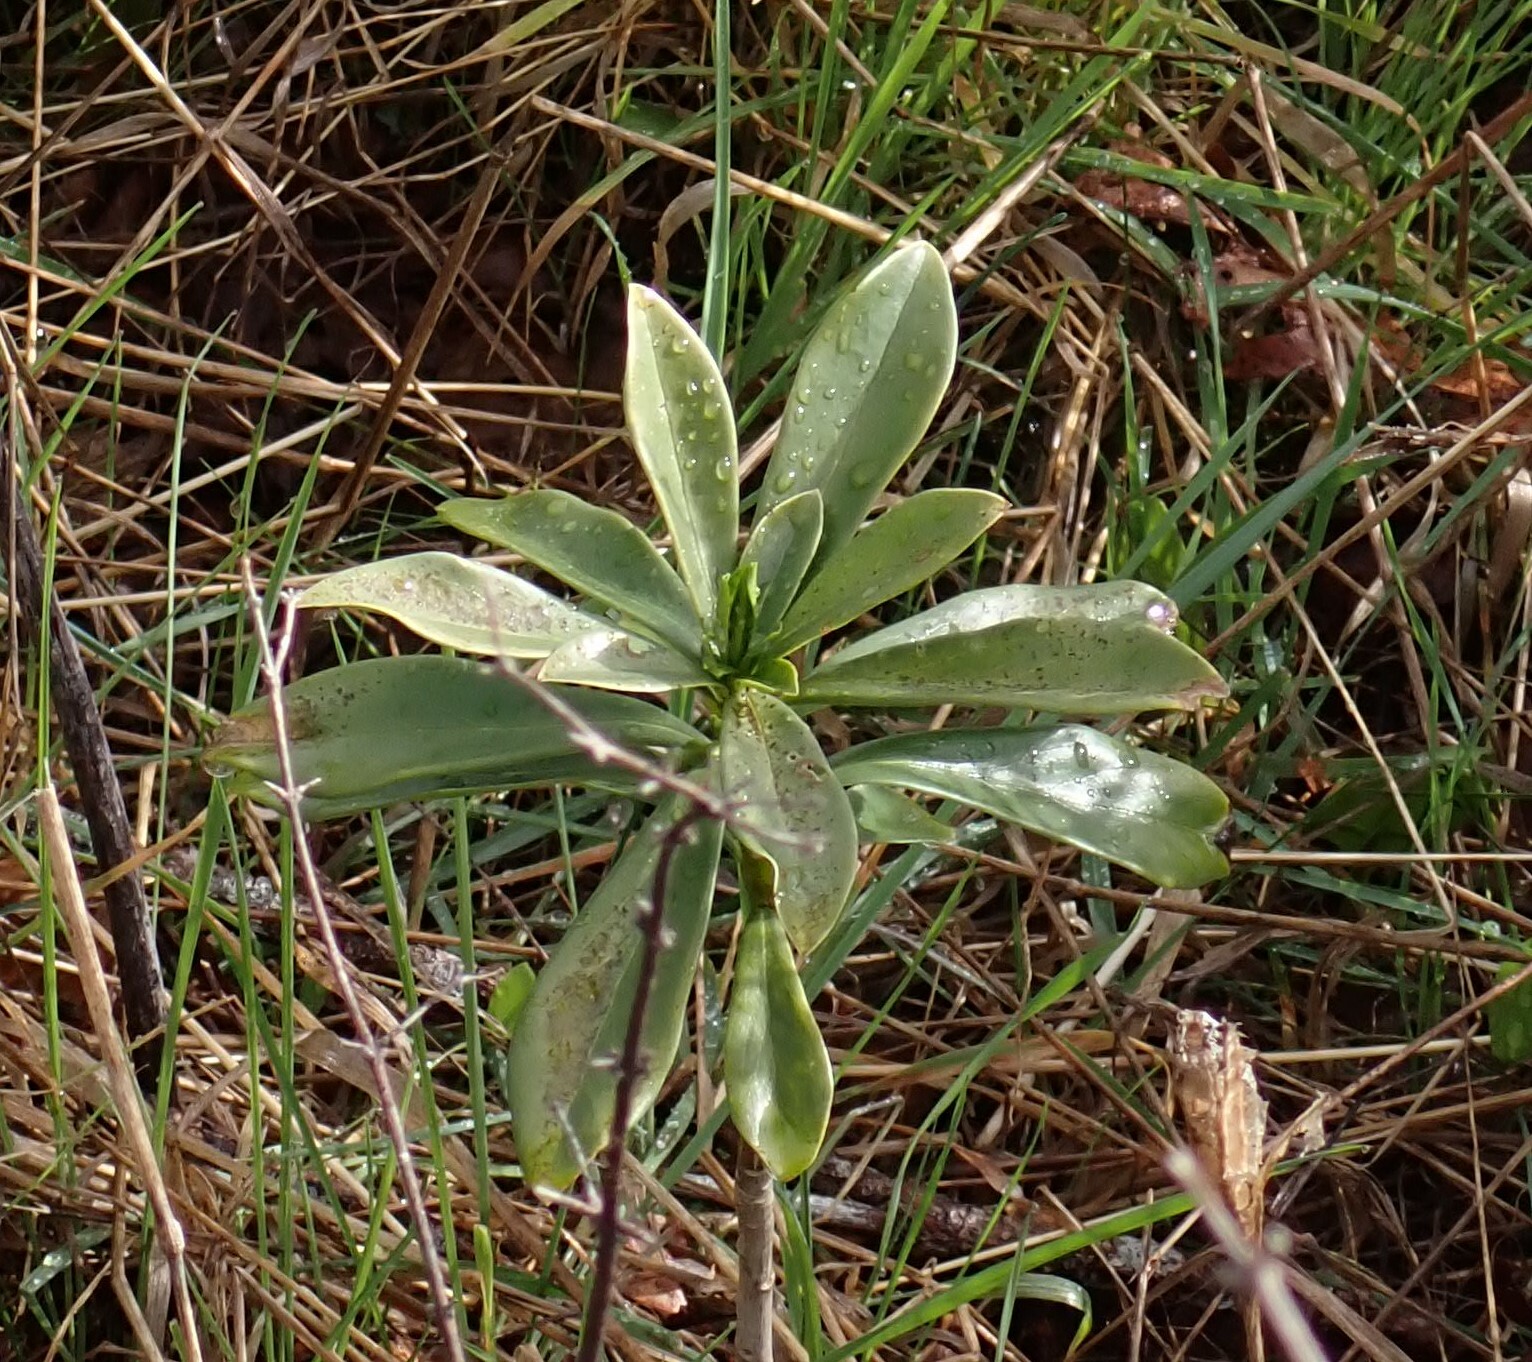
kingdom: Plantae
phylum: Tracheophyta
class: Magnoliopsida
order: Malvales
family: Thymelaeaceae
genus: Daphne
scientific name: Daphne laureola
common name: Spurge-laurel
